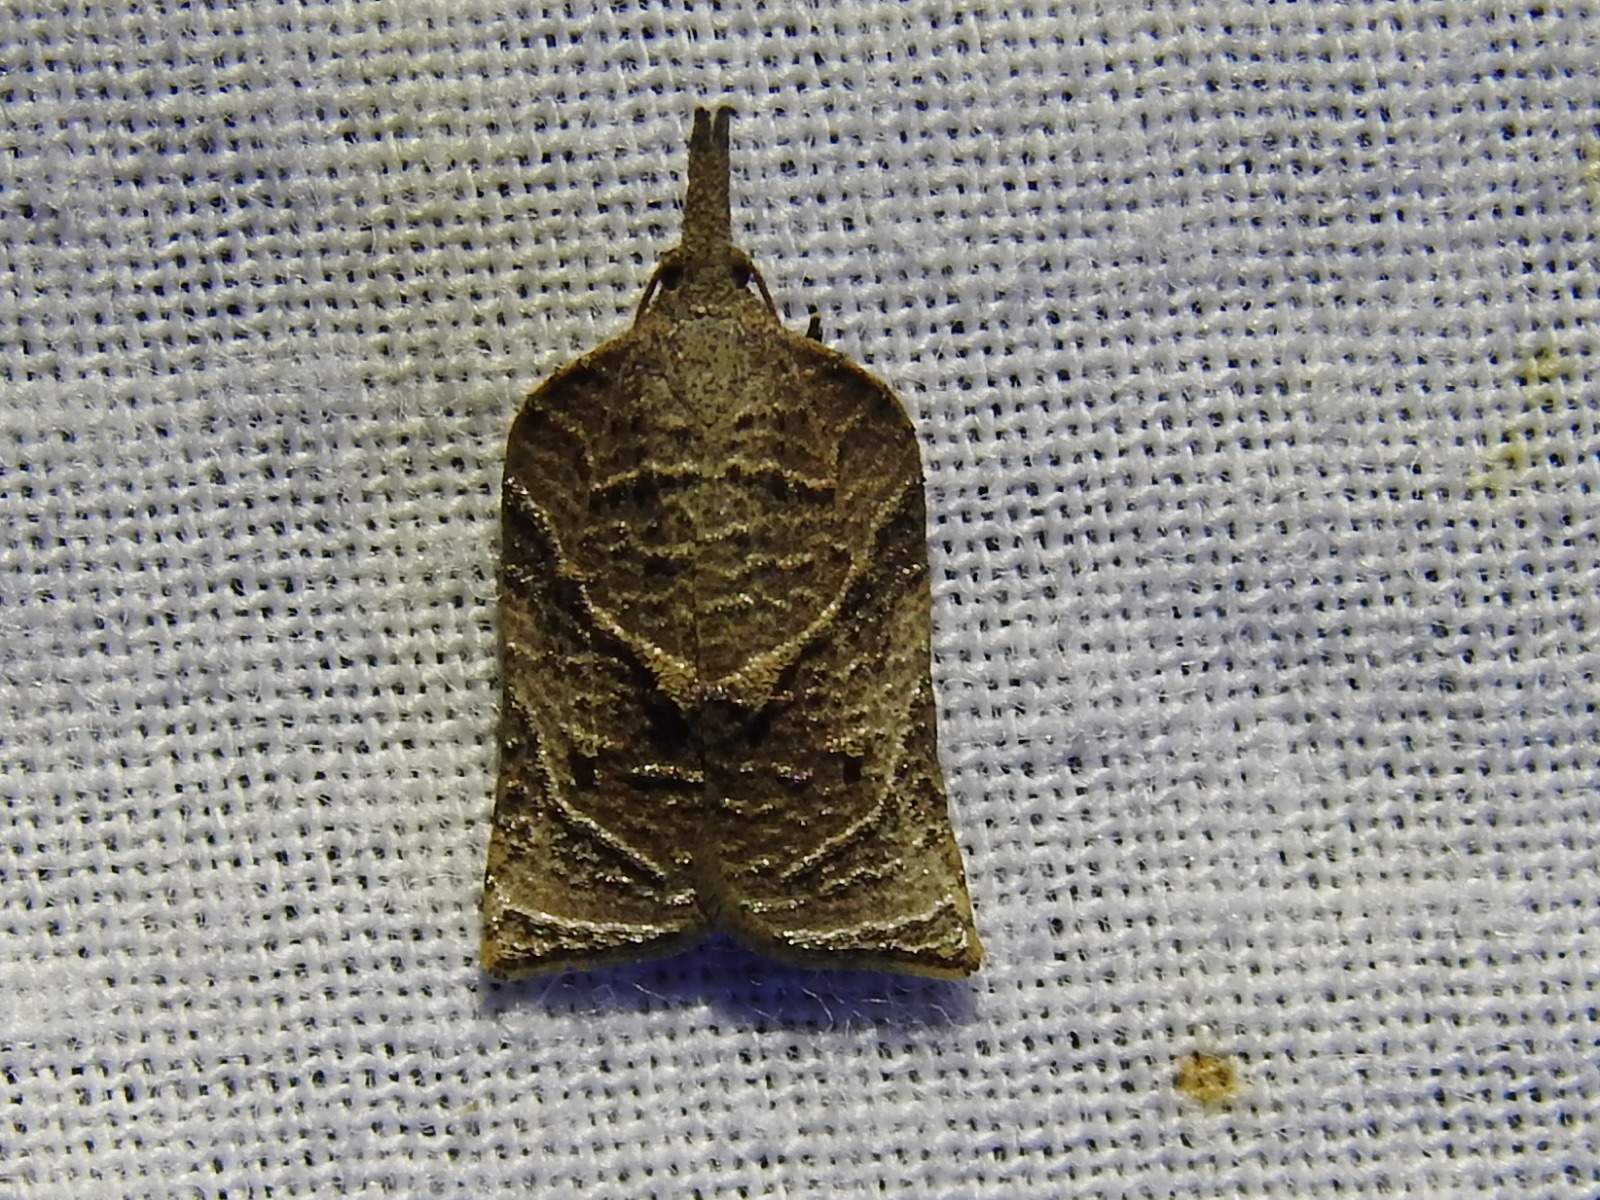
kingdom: Animalia
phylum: Arthropoda
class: Insecta
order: Lepidoptera
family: Tortricidae
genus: Platynota
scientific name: Platynota rostrana
